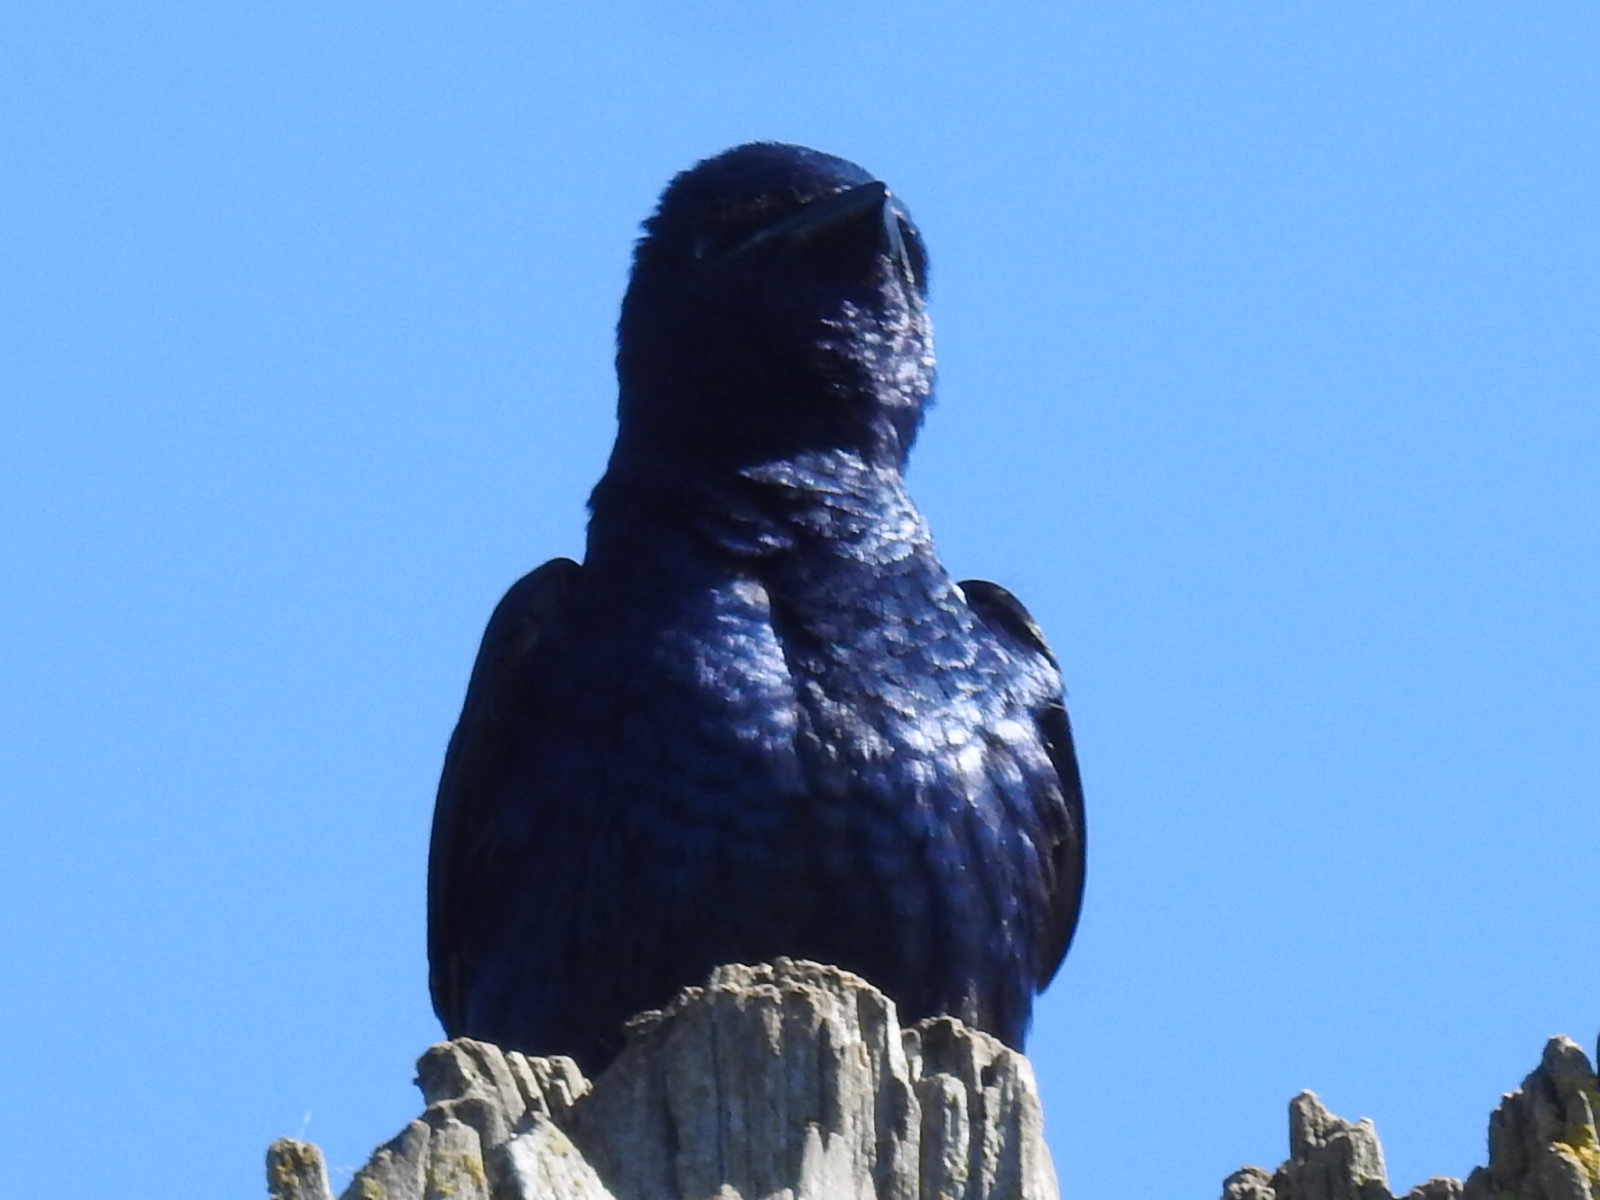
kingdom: Animalia
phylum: Chordata
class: Aves
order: Passeriformes
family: Hirundinidae
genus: Progne
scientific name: Progne subis
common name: Purple martin
